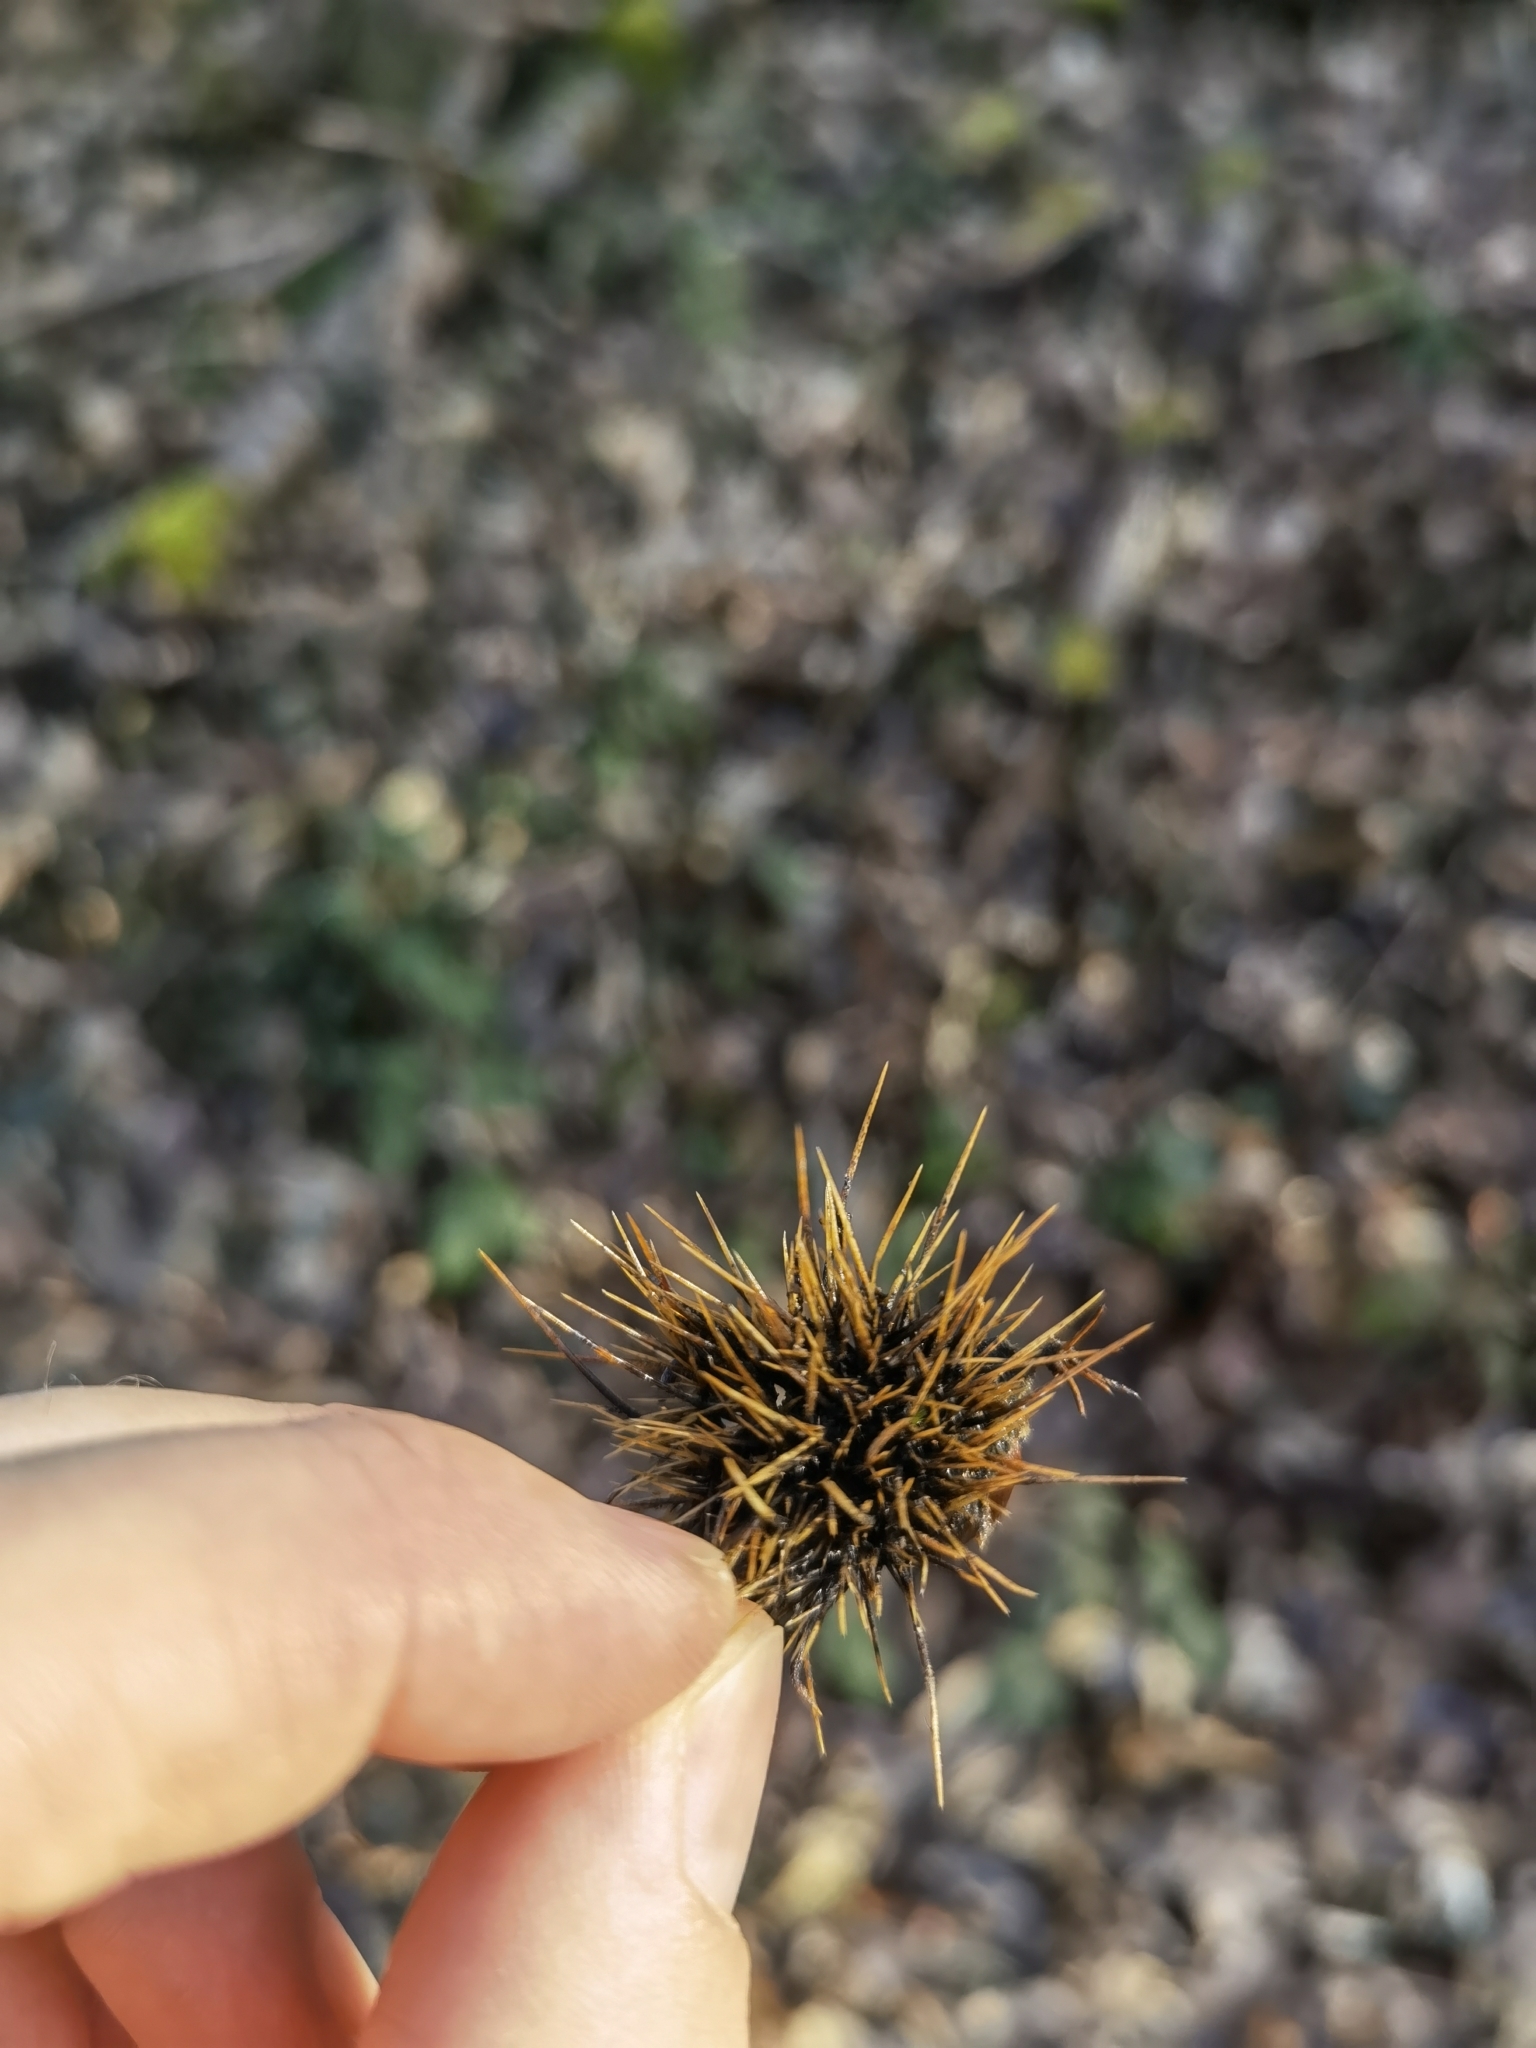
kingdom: Plantae
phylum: Tracheophyta
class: Magnoliopsida
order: Fagales
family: Fagaceae
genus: Castanea
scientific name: Castanea sativa
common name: Sweet chestnut
